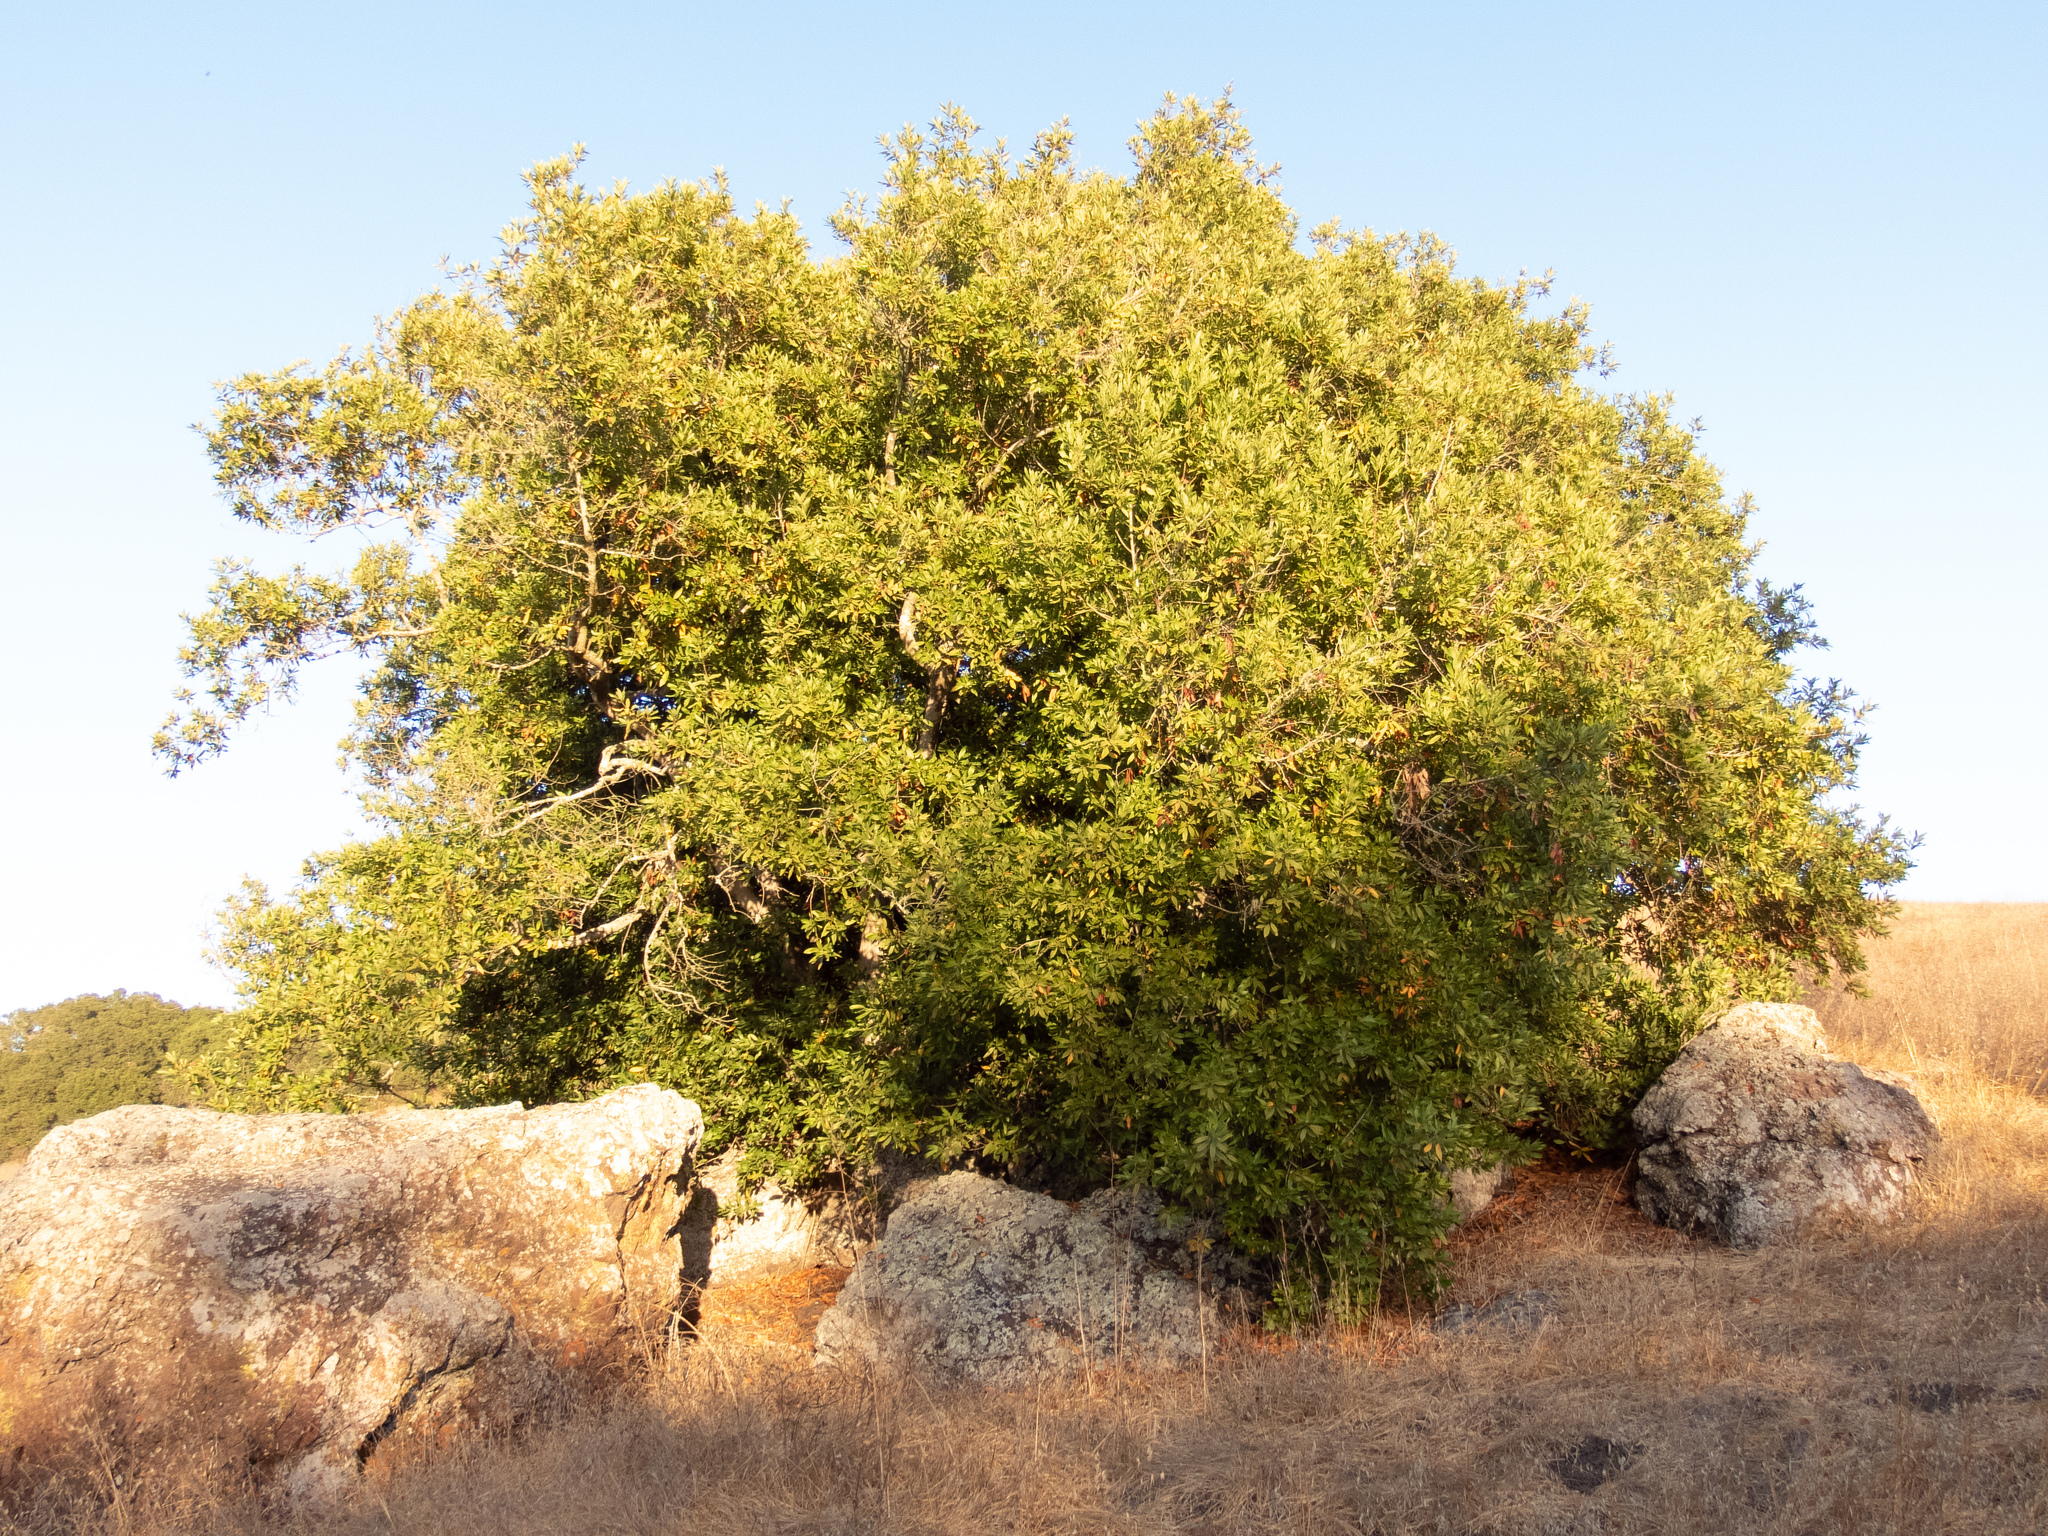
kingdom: Plantae
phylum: Tracheophyta
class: Magnoliopsida
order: Laurales
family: Lauraceae
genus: Umbellularia
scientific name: Umbellularia californica
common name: California bay
